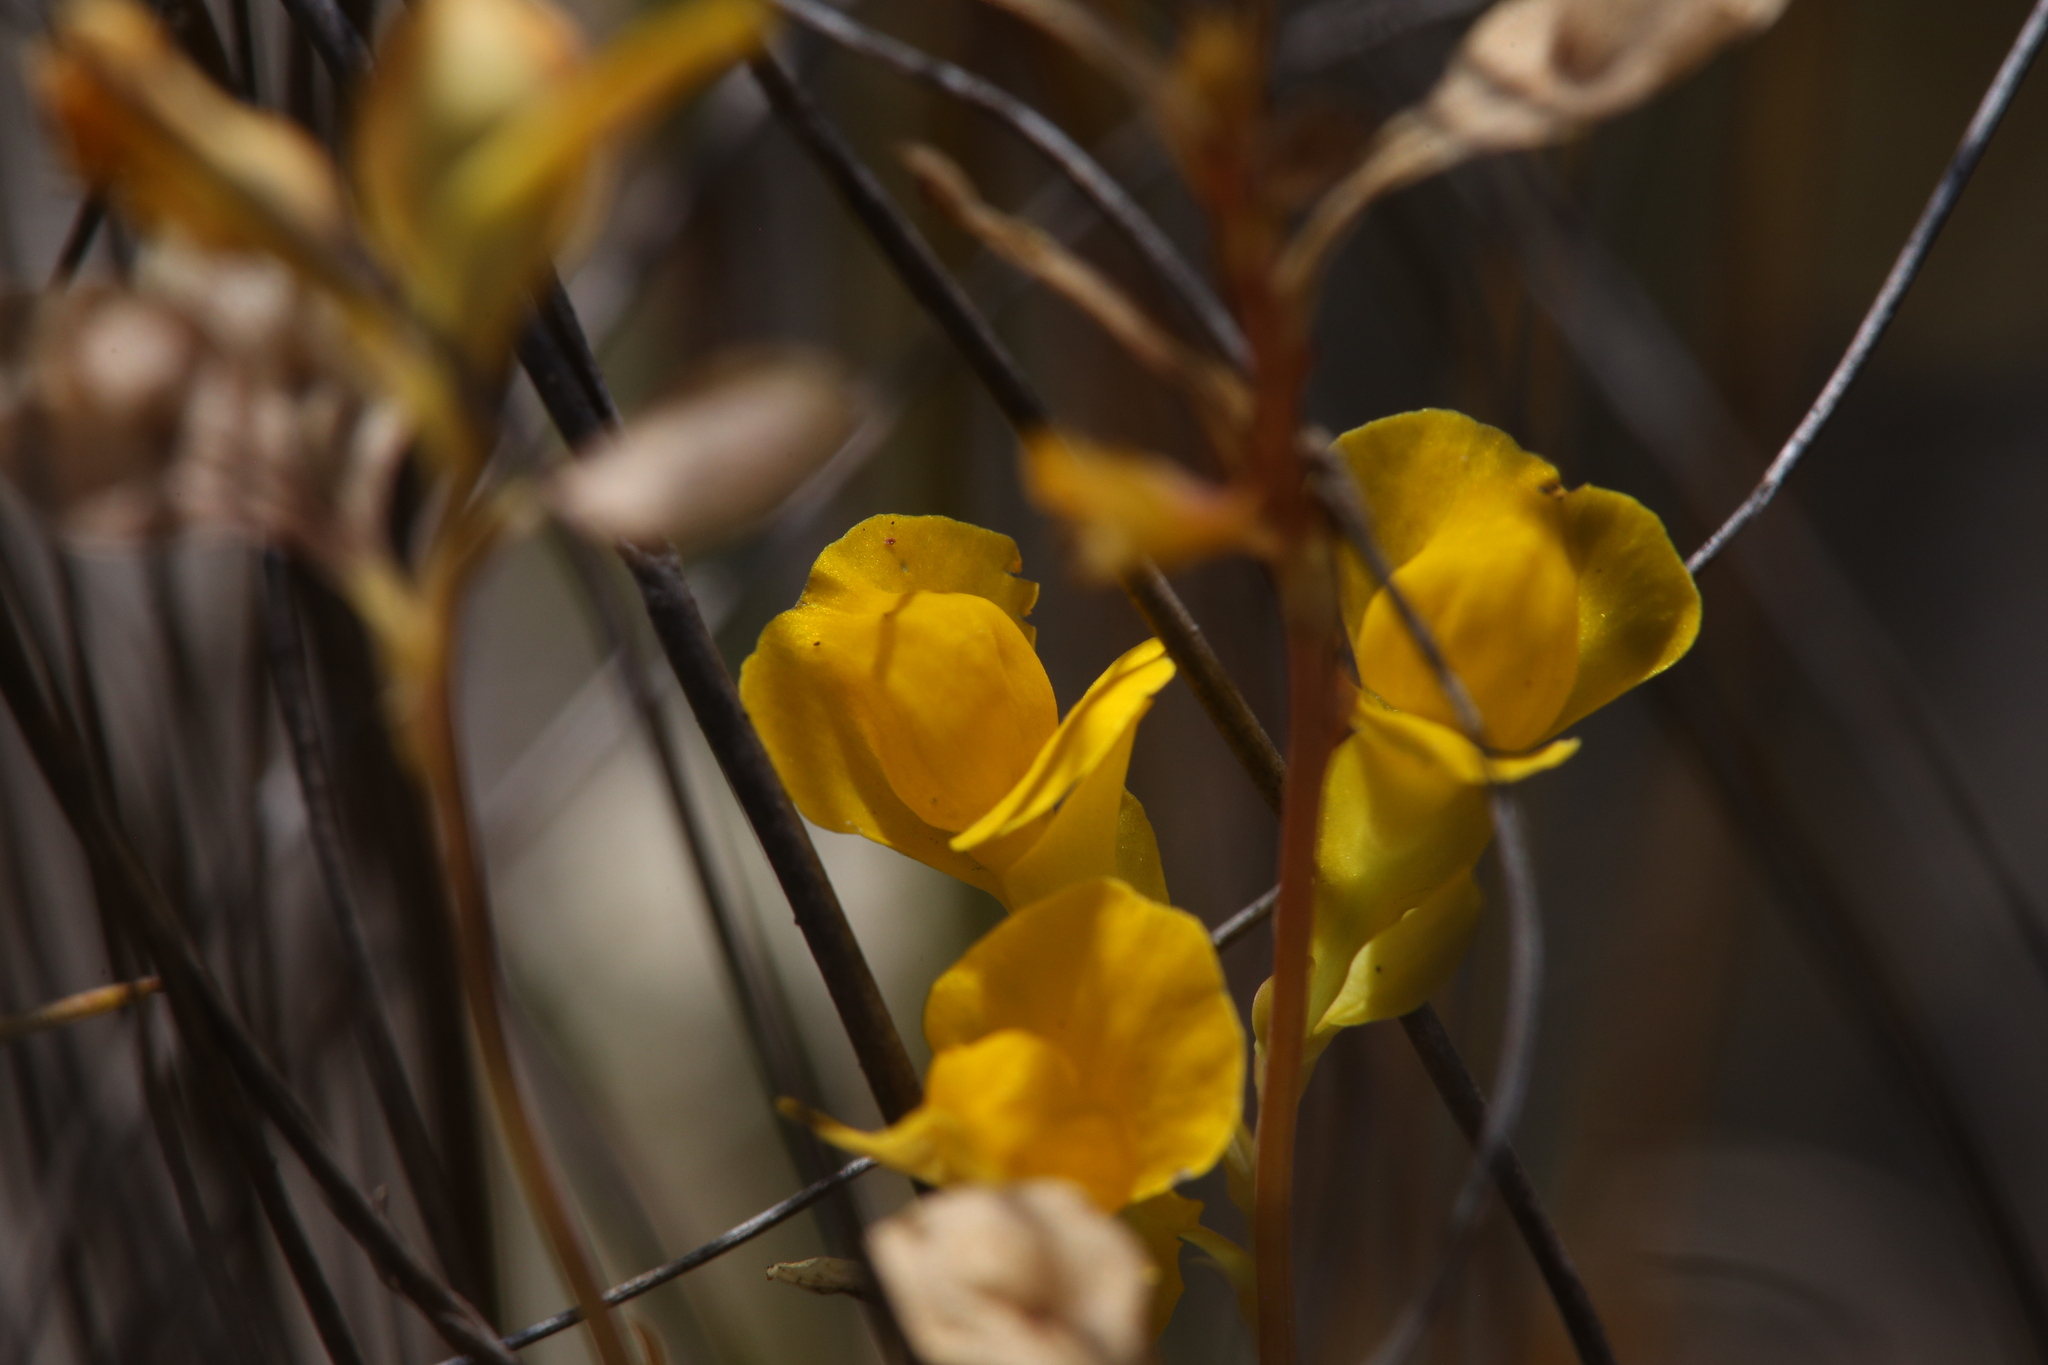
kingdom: Plantae
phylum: Tracheophyta
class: Magnoliopsida
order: Lamiales
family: Lentibulariaceae
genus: Utricularia
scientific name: Utricularia odorata
